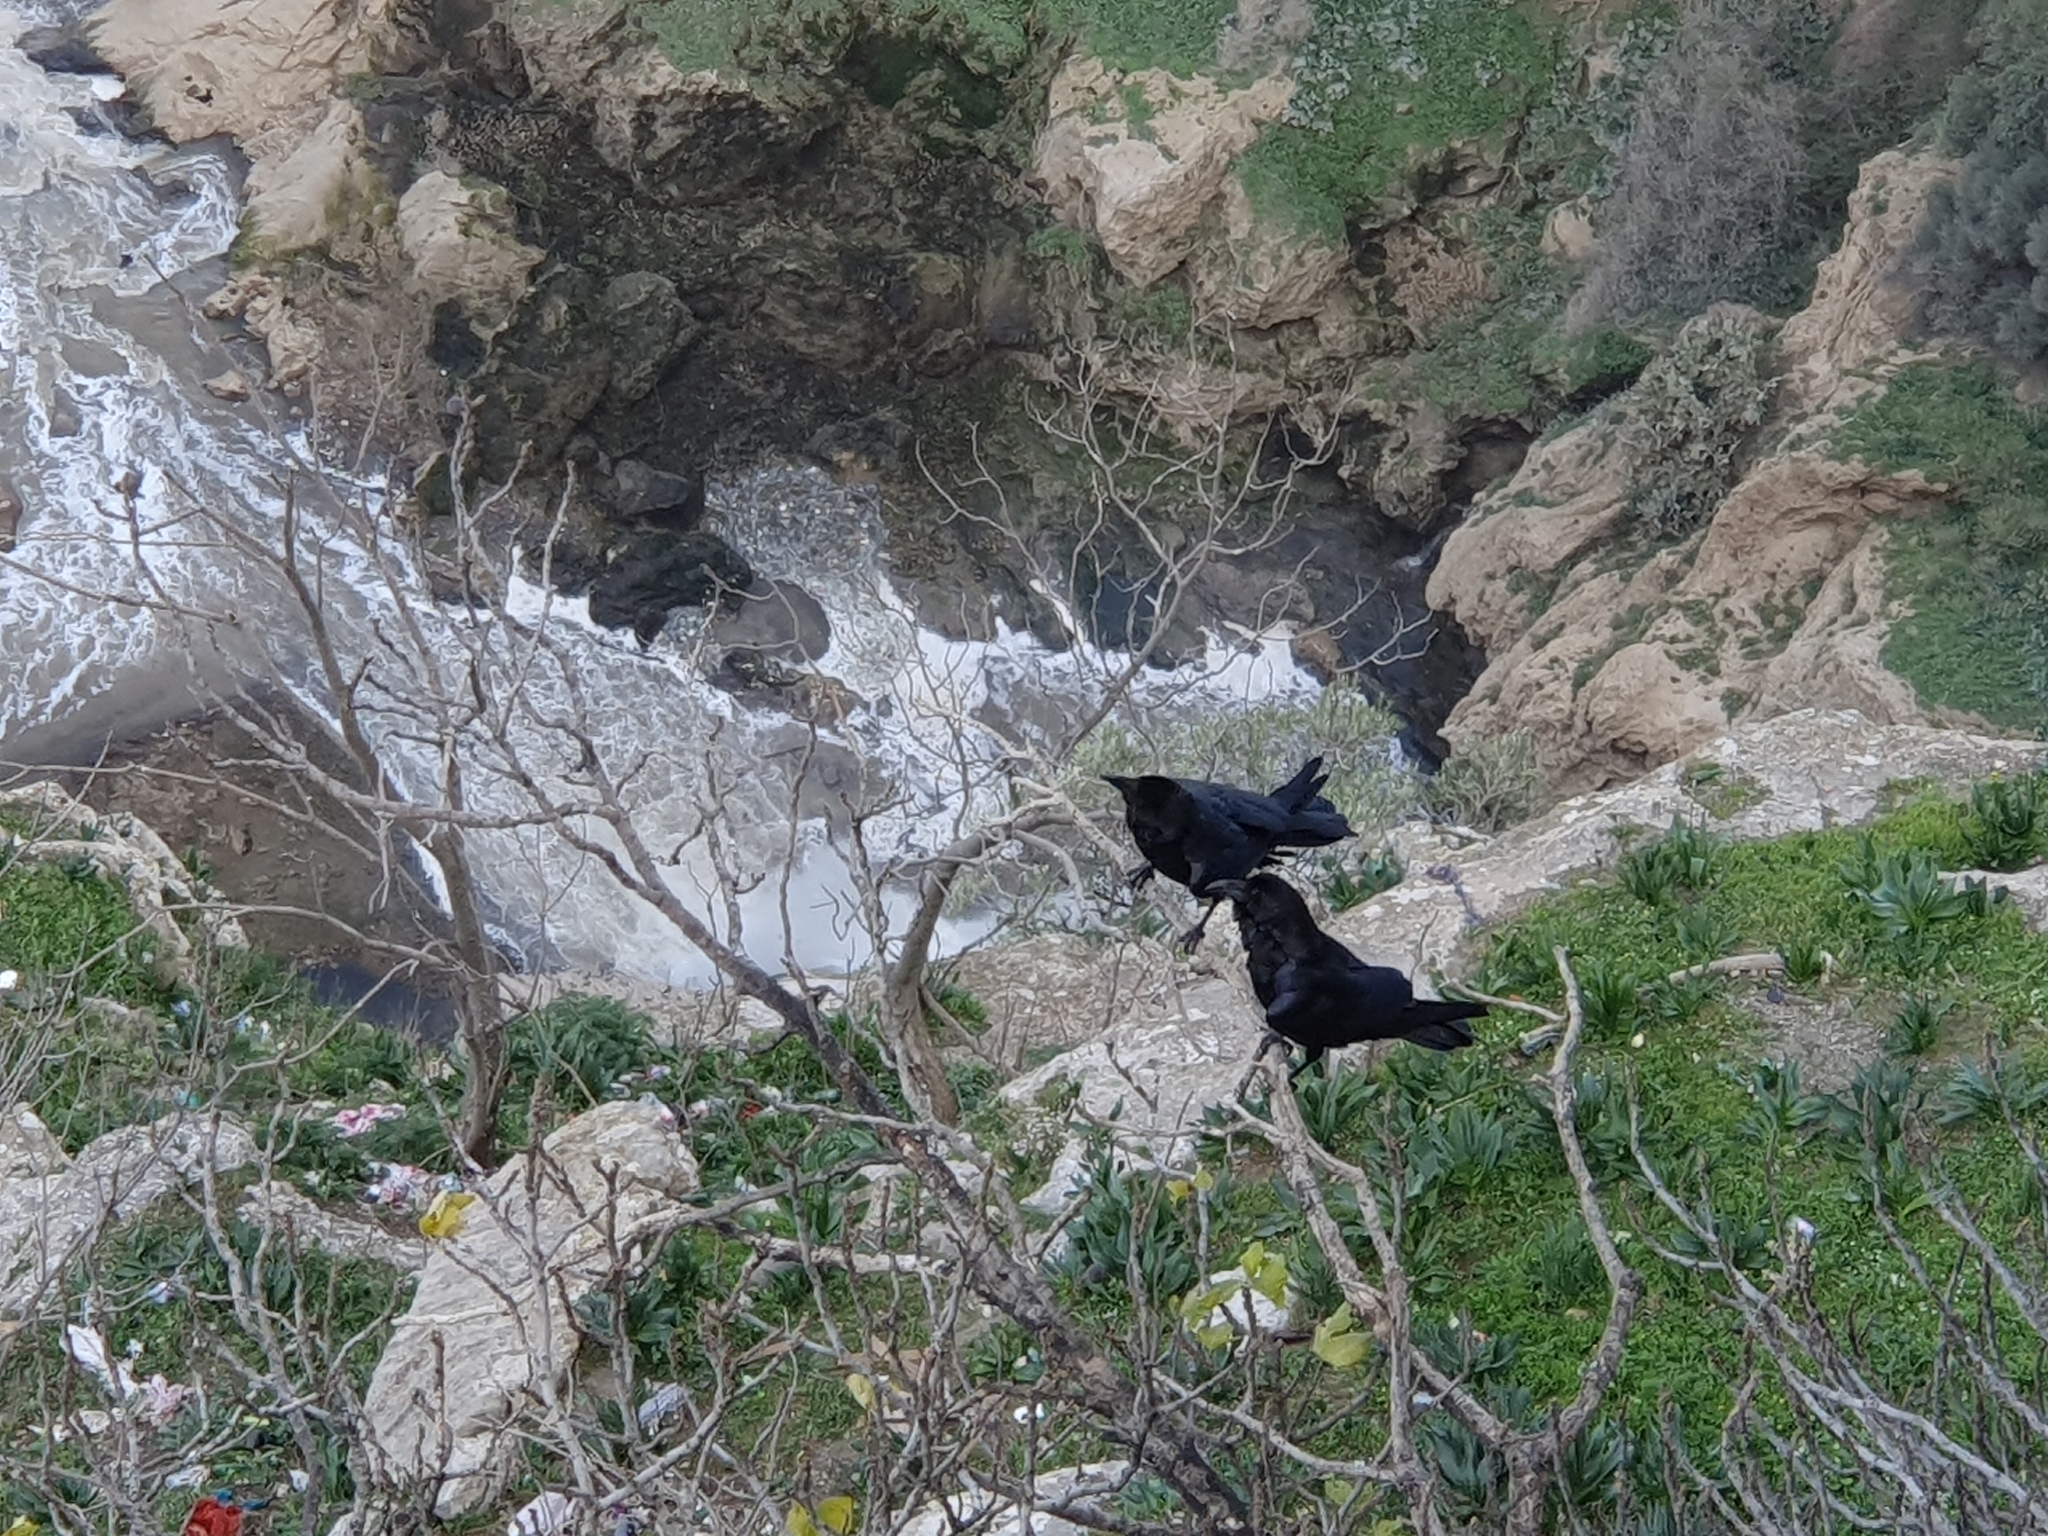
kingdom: Animalia
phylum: Chordata
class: Aves
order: Passeriformes
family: Corvidae
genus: Corvus
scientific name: Corvus corax
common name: Common raven
